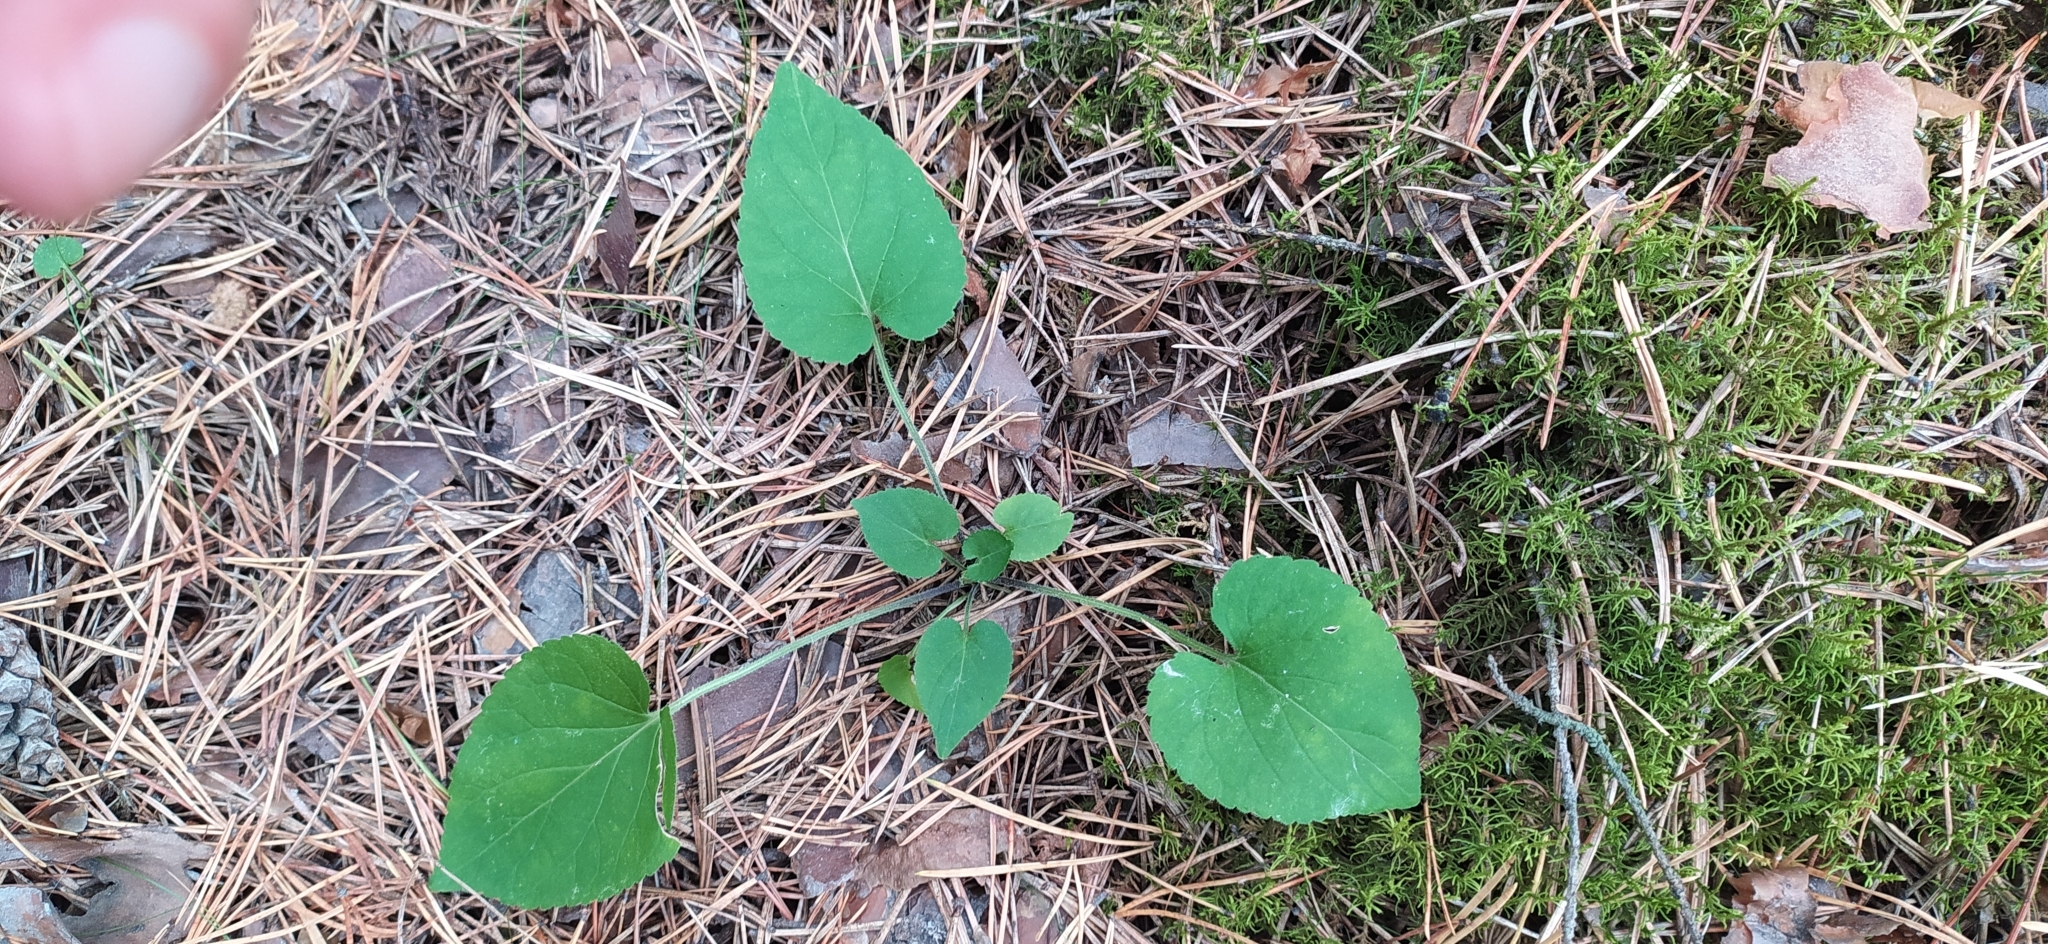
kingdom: Plantae
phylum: Tracheophyta
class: Magnoliopsida
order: Malpighiales
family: Violaceae
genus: Viola
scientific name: Viola rupestris
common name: Teesdale violet
